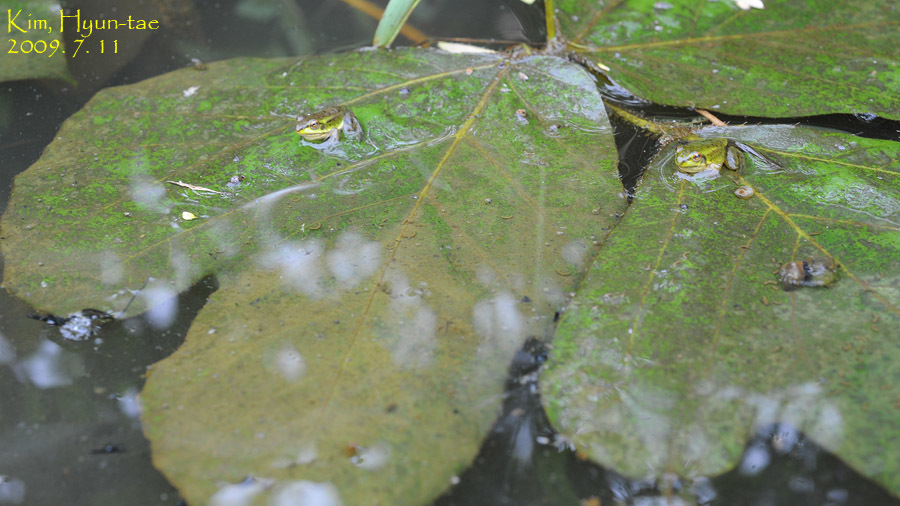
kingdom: Animalia
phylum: Chordata
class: Amphibia
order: Anura
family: Ranidae
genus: Pelophylax
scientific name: Pelophylax chosenicus
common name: Gold-spotted pond frog
